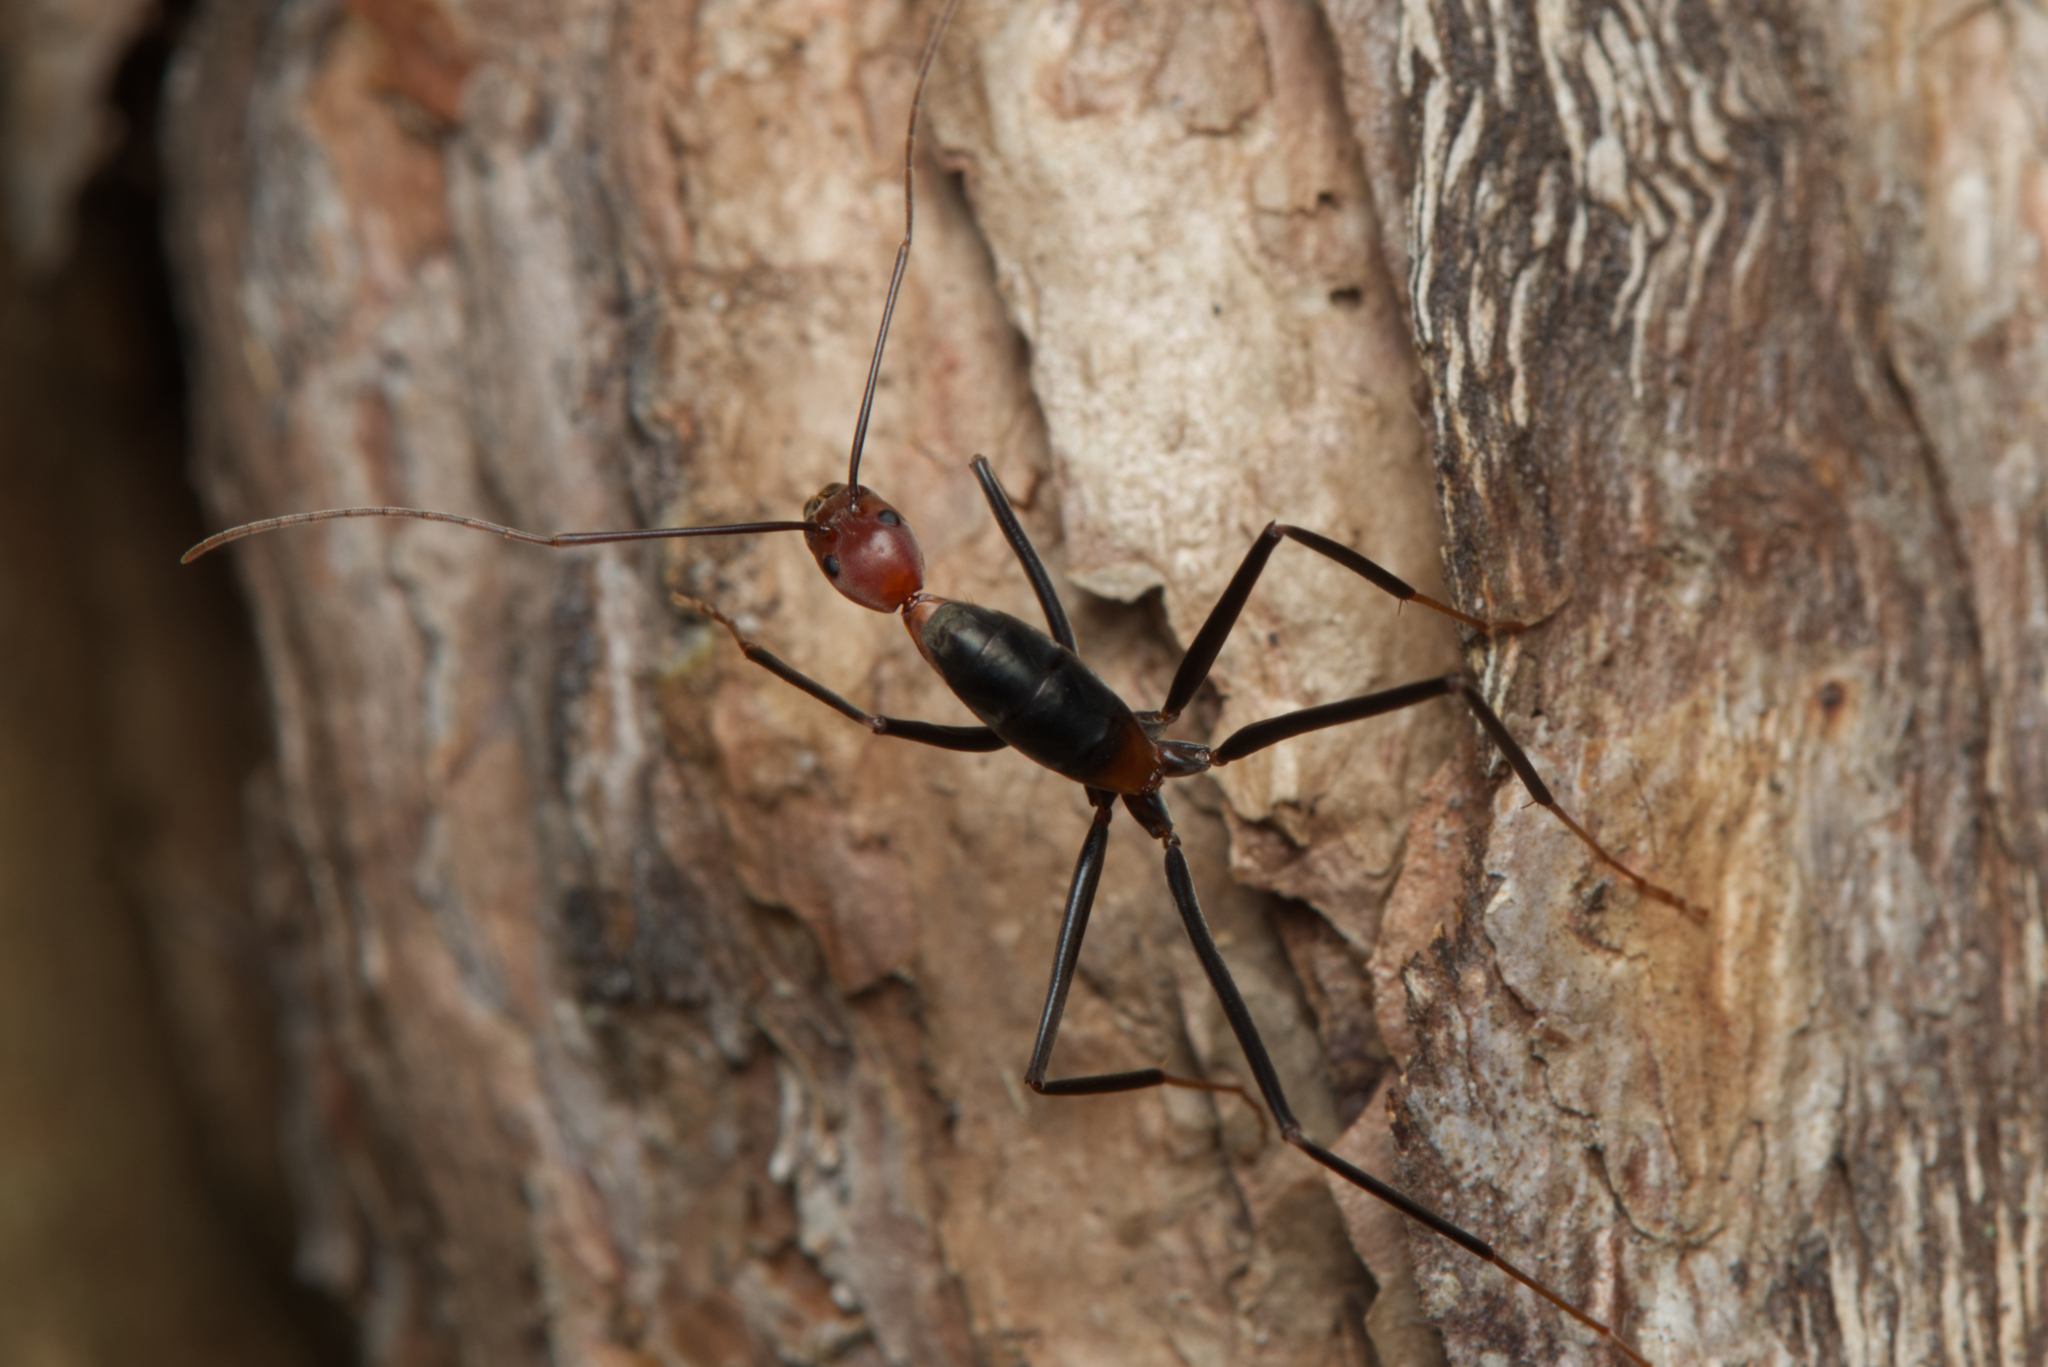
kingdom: Animalia
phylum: Arthropoda
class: Insecta
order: Hymenoptera
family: Formicidae
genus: Leptomyrmex
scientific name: Leptomyrmex rufithorax
